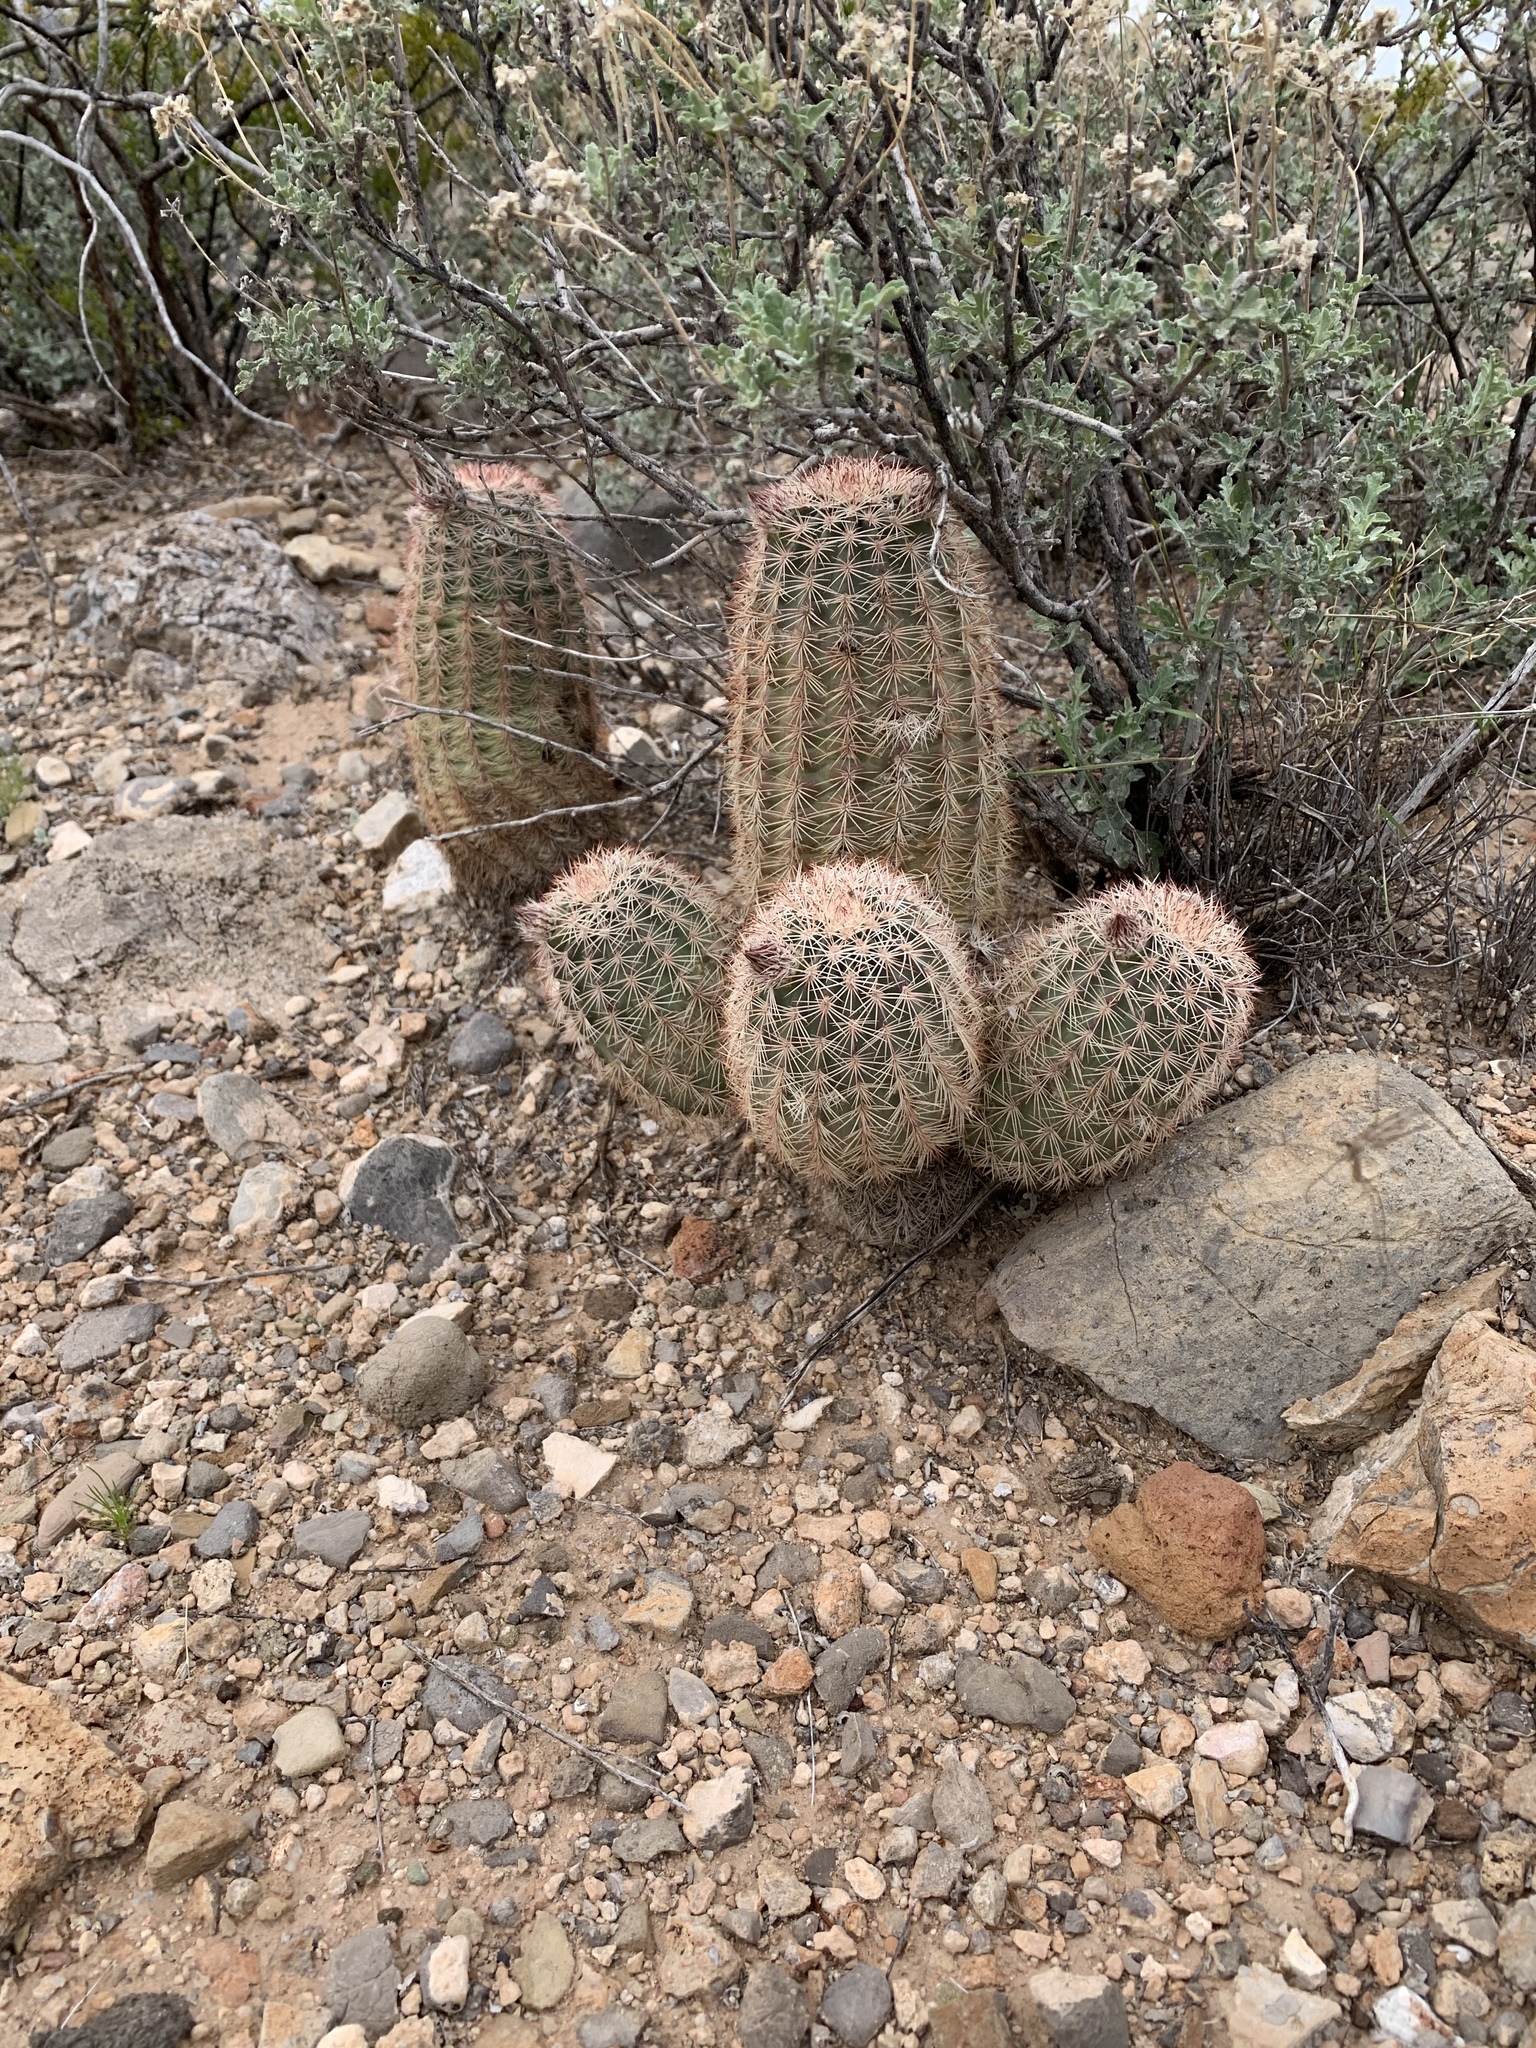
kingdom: Plantae
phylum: Tracheophyta
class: Magnoliopsida
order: Caryophyllales
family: Cactaceae
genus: Echinocereus
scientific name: Echinocereus dasyacanthus
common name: Spiny hedgehog cactus
